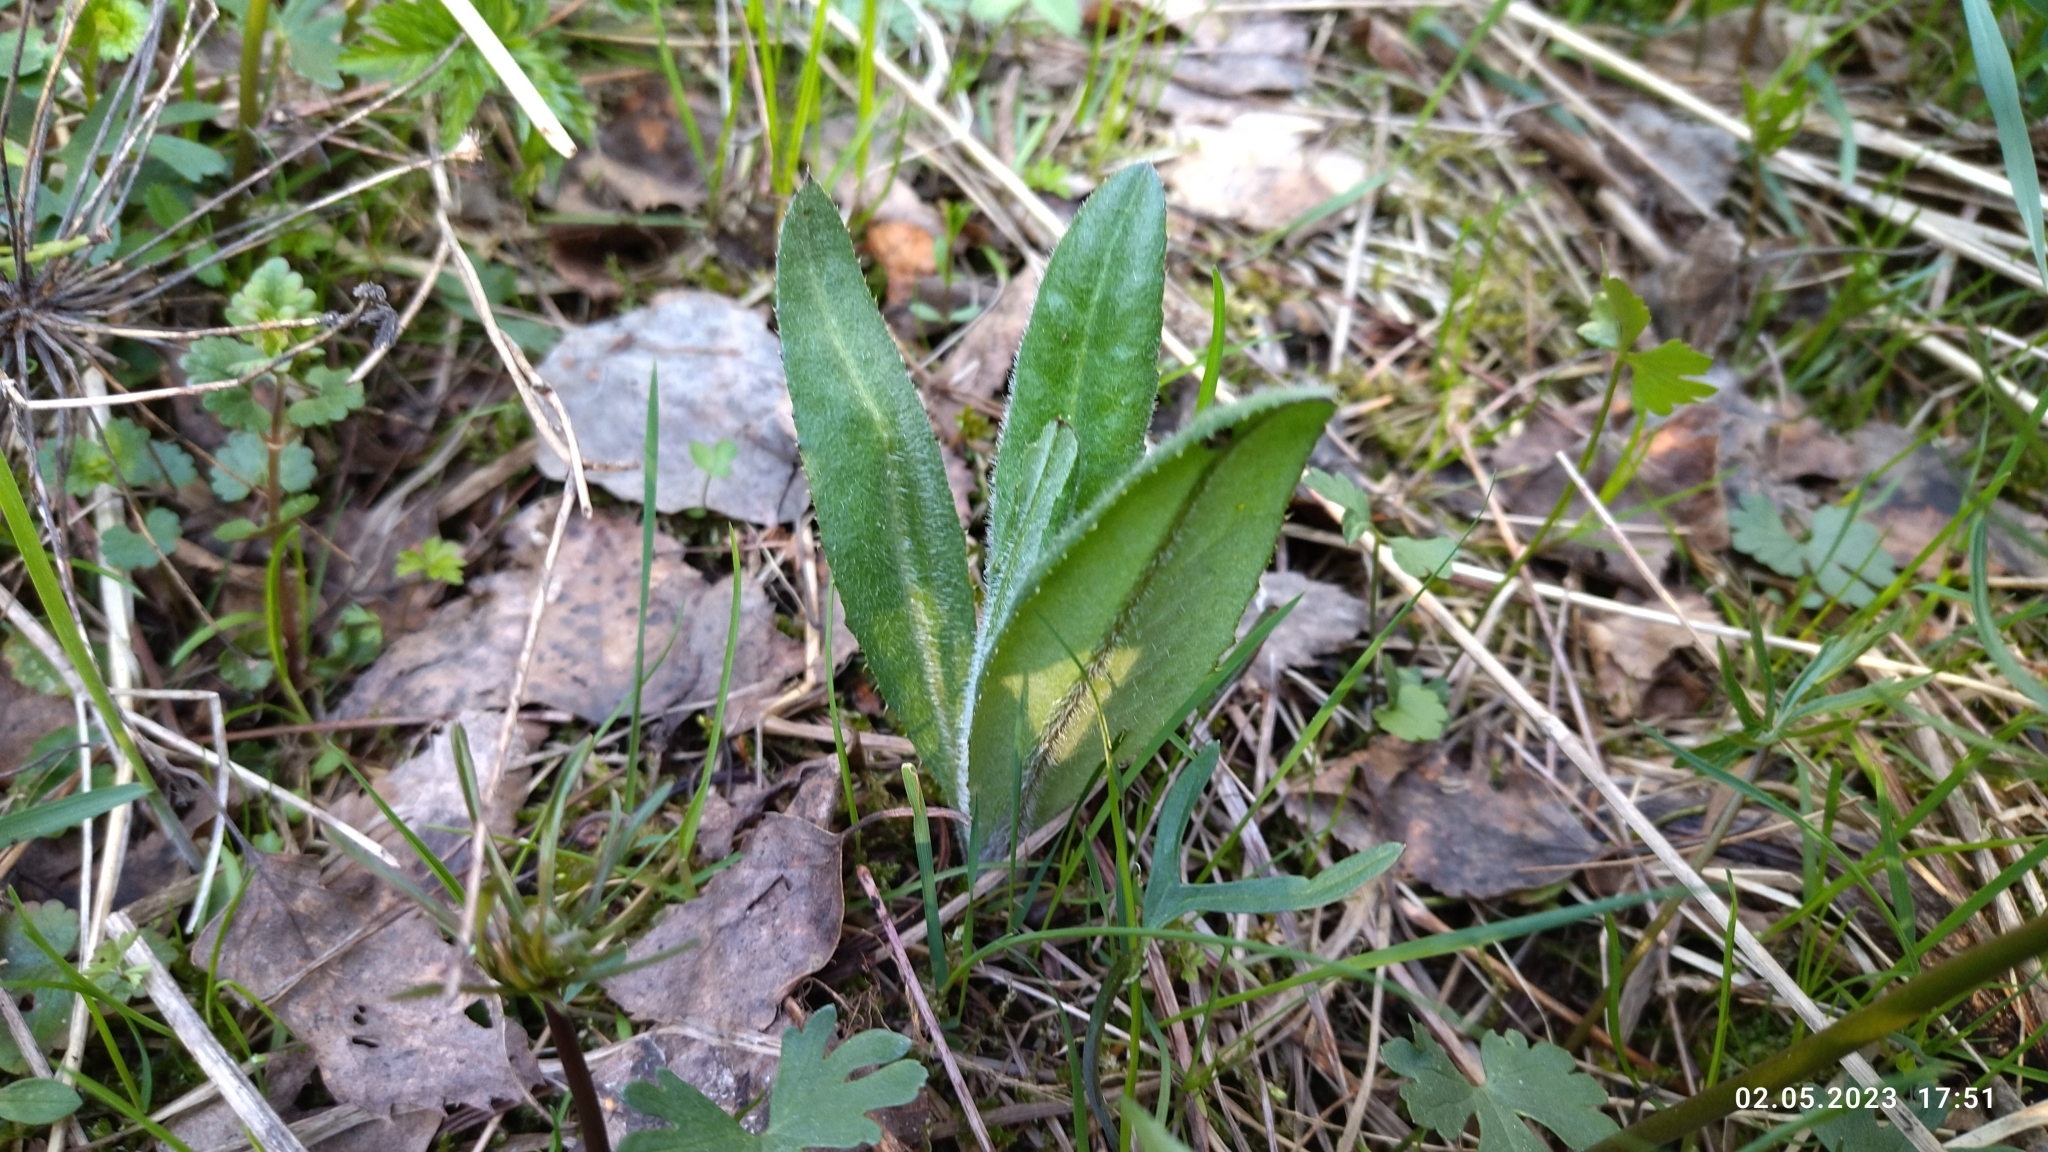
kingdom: Plantae
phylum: Tracheophyta
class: Magnoliopsida
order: Asterales
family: Asteraceae
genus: Cirsium
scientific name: Cirsium arvense
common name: Creeping thistle
